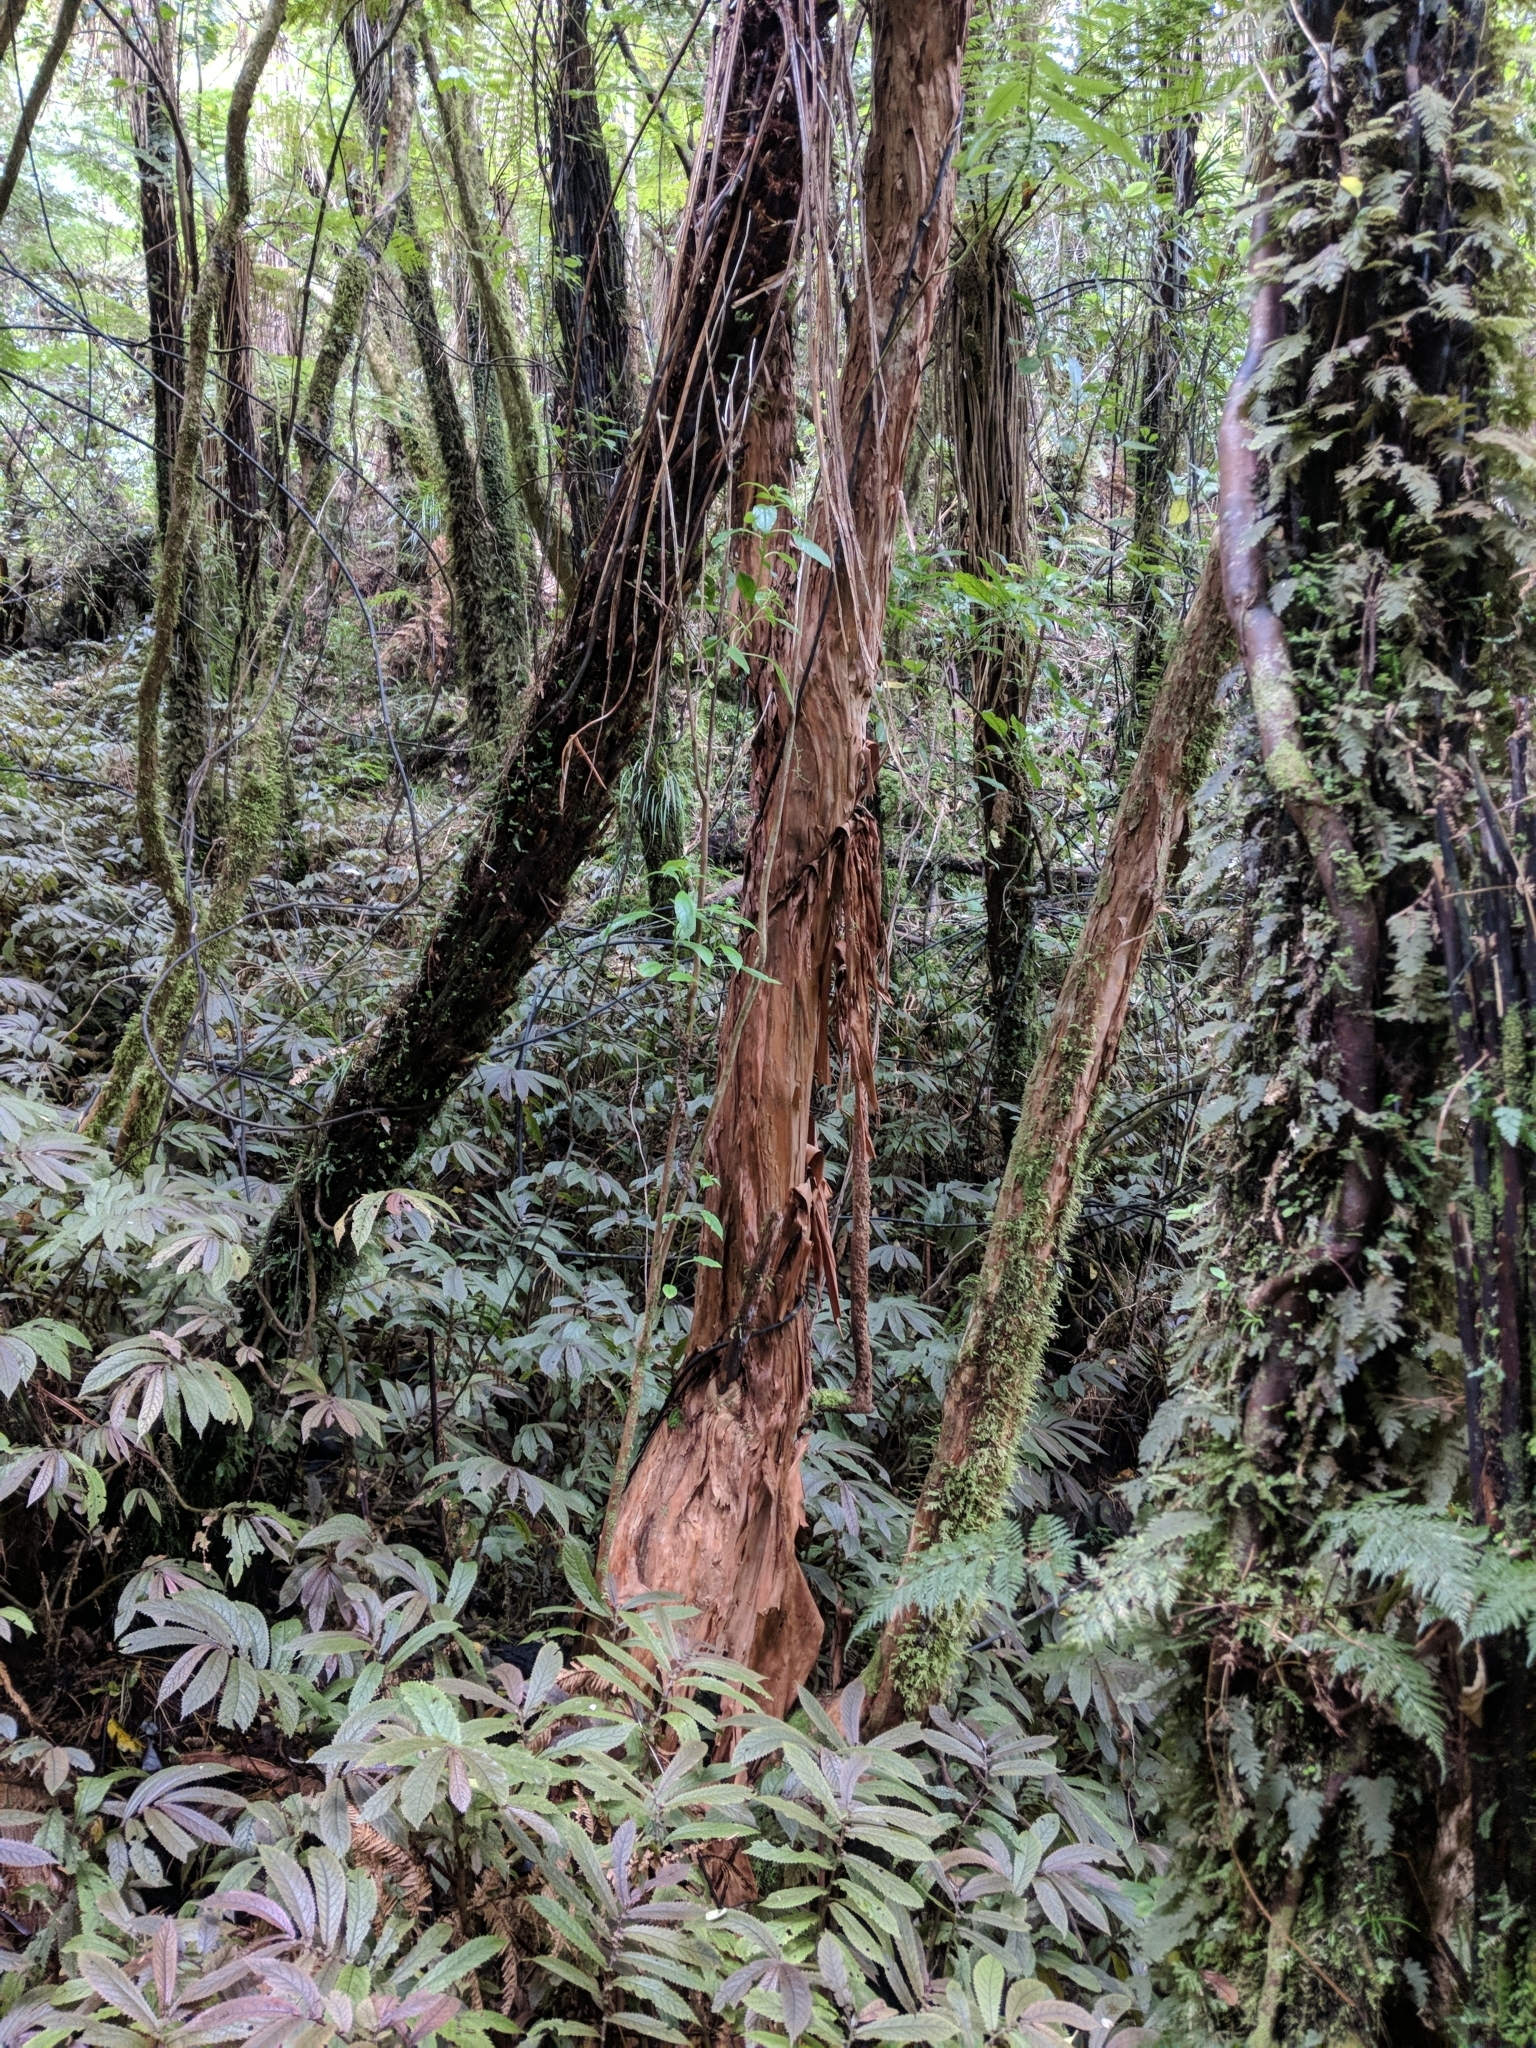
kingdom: Plantae
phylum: Tracheophyta
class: Magnoliopsida
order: Myrtales
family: Onagraceae
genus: Fuchsia
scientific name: Fuchsia excorticata
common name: Tree fuchsia
